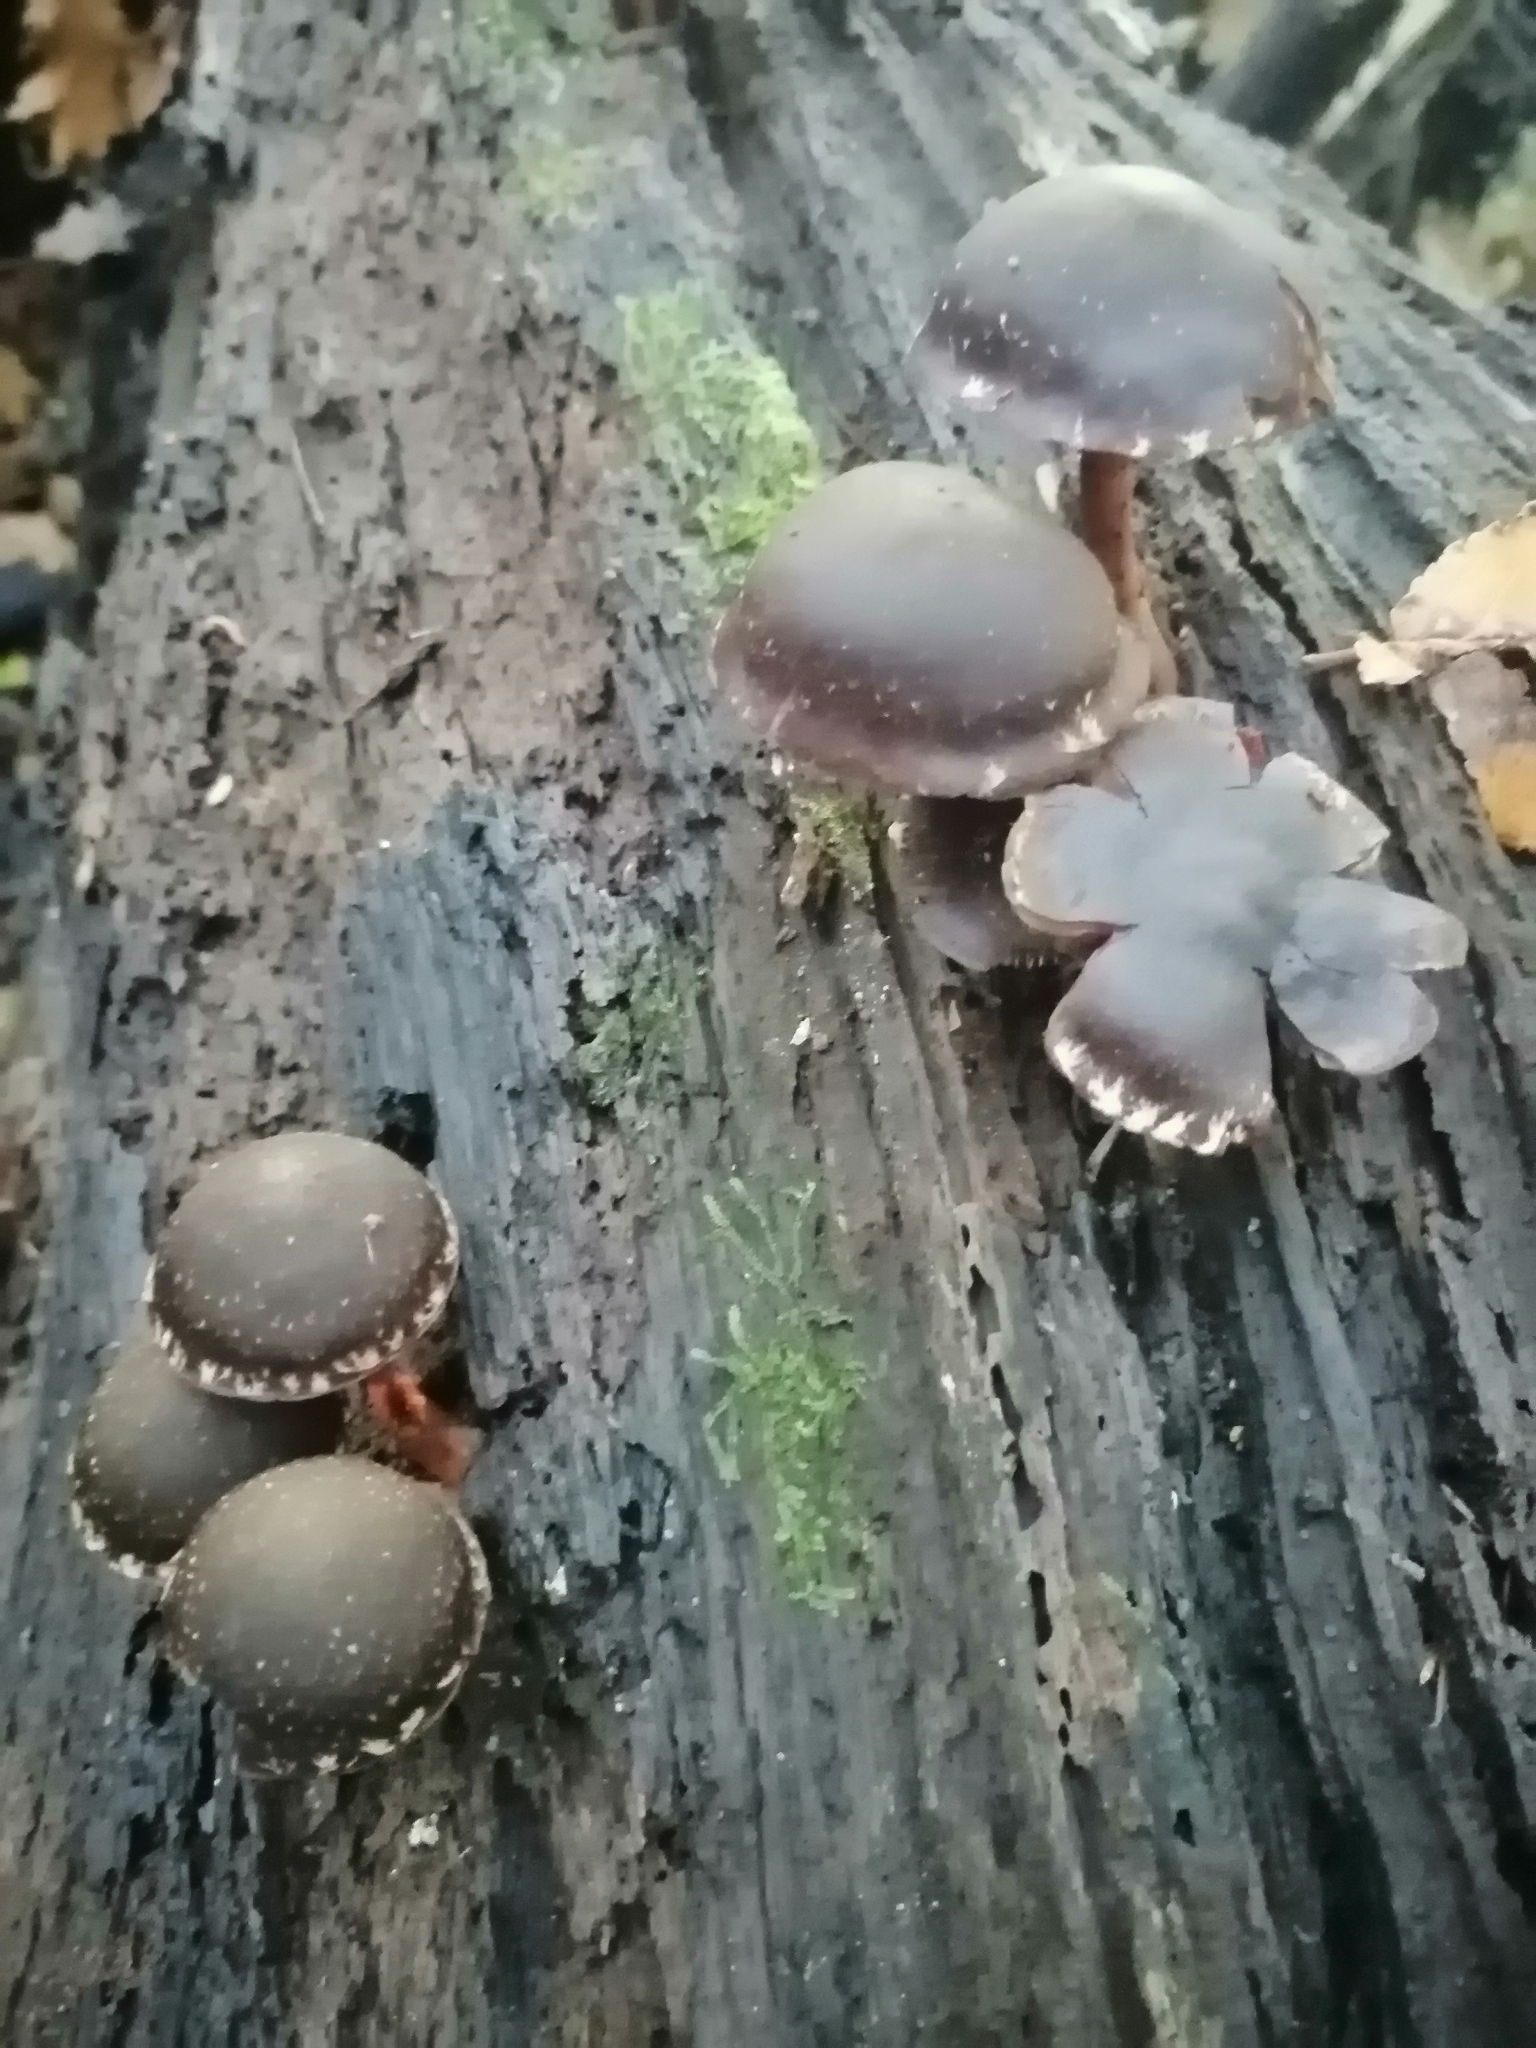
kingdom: Fungi
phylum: Basidiomycota
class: Agaricomycetes
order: Agaricales
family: Strophariaceae
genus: Hypholoma
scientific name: Hypholoma brunneum
